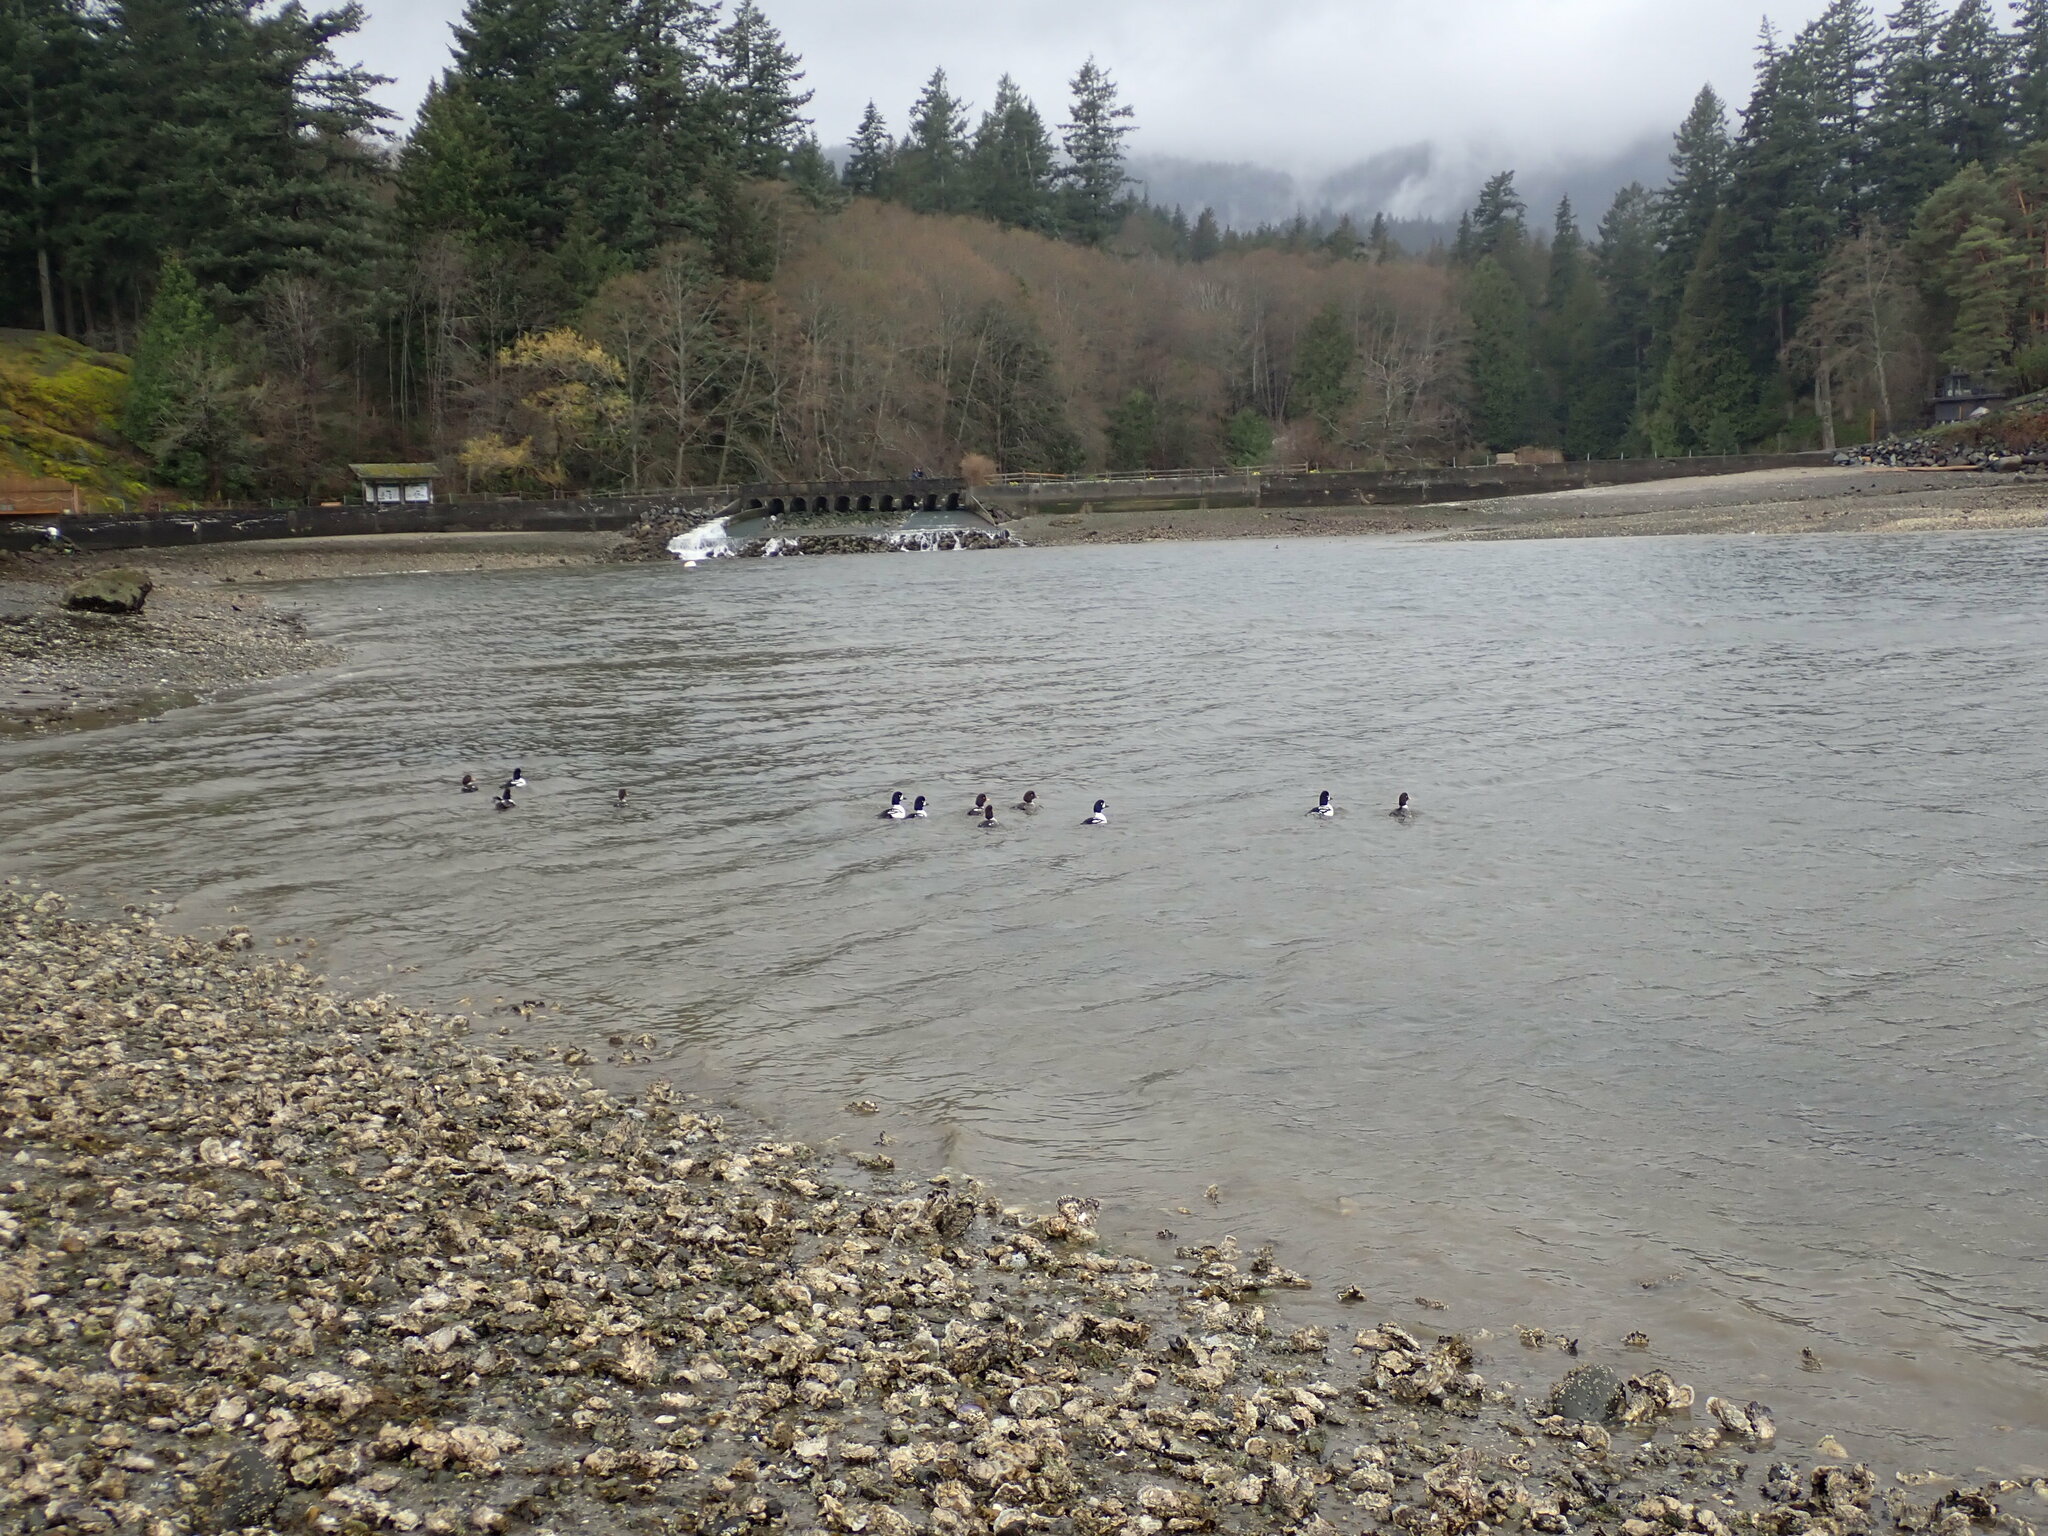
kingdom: Animalia
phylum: Chordata
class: Aves
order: Anseriformes
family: Anatidae
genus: Bucephala
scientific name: Bucephala islandica
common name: Barrow's goldeneye
